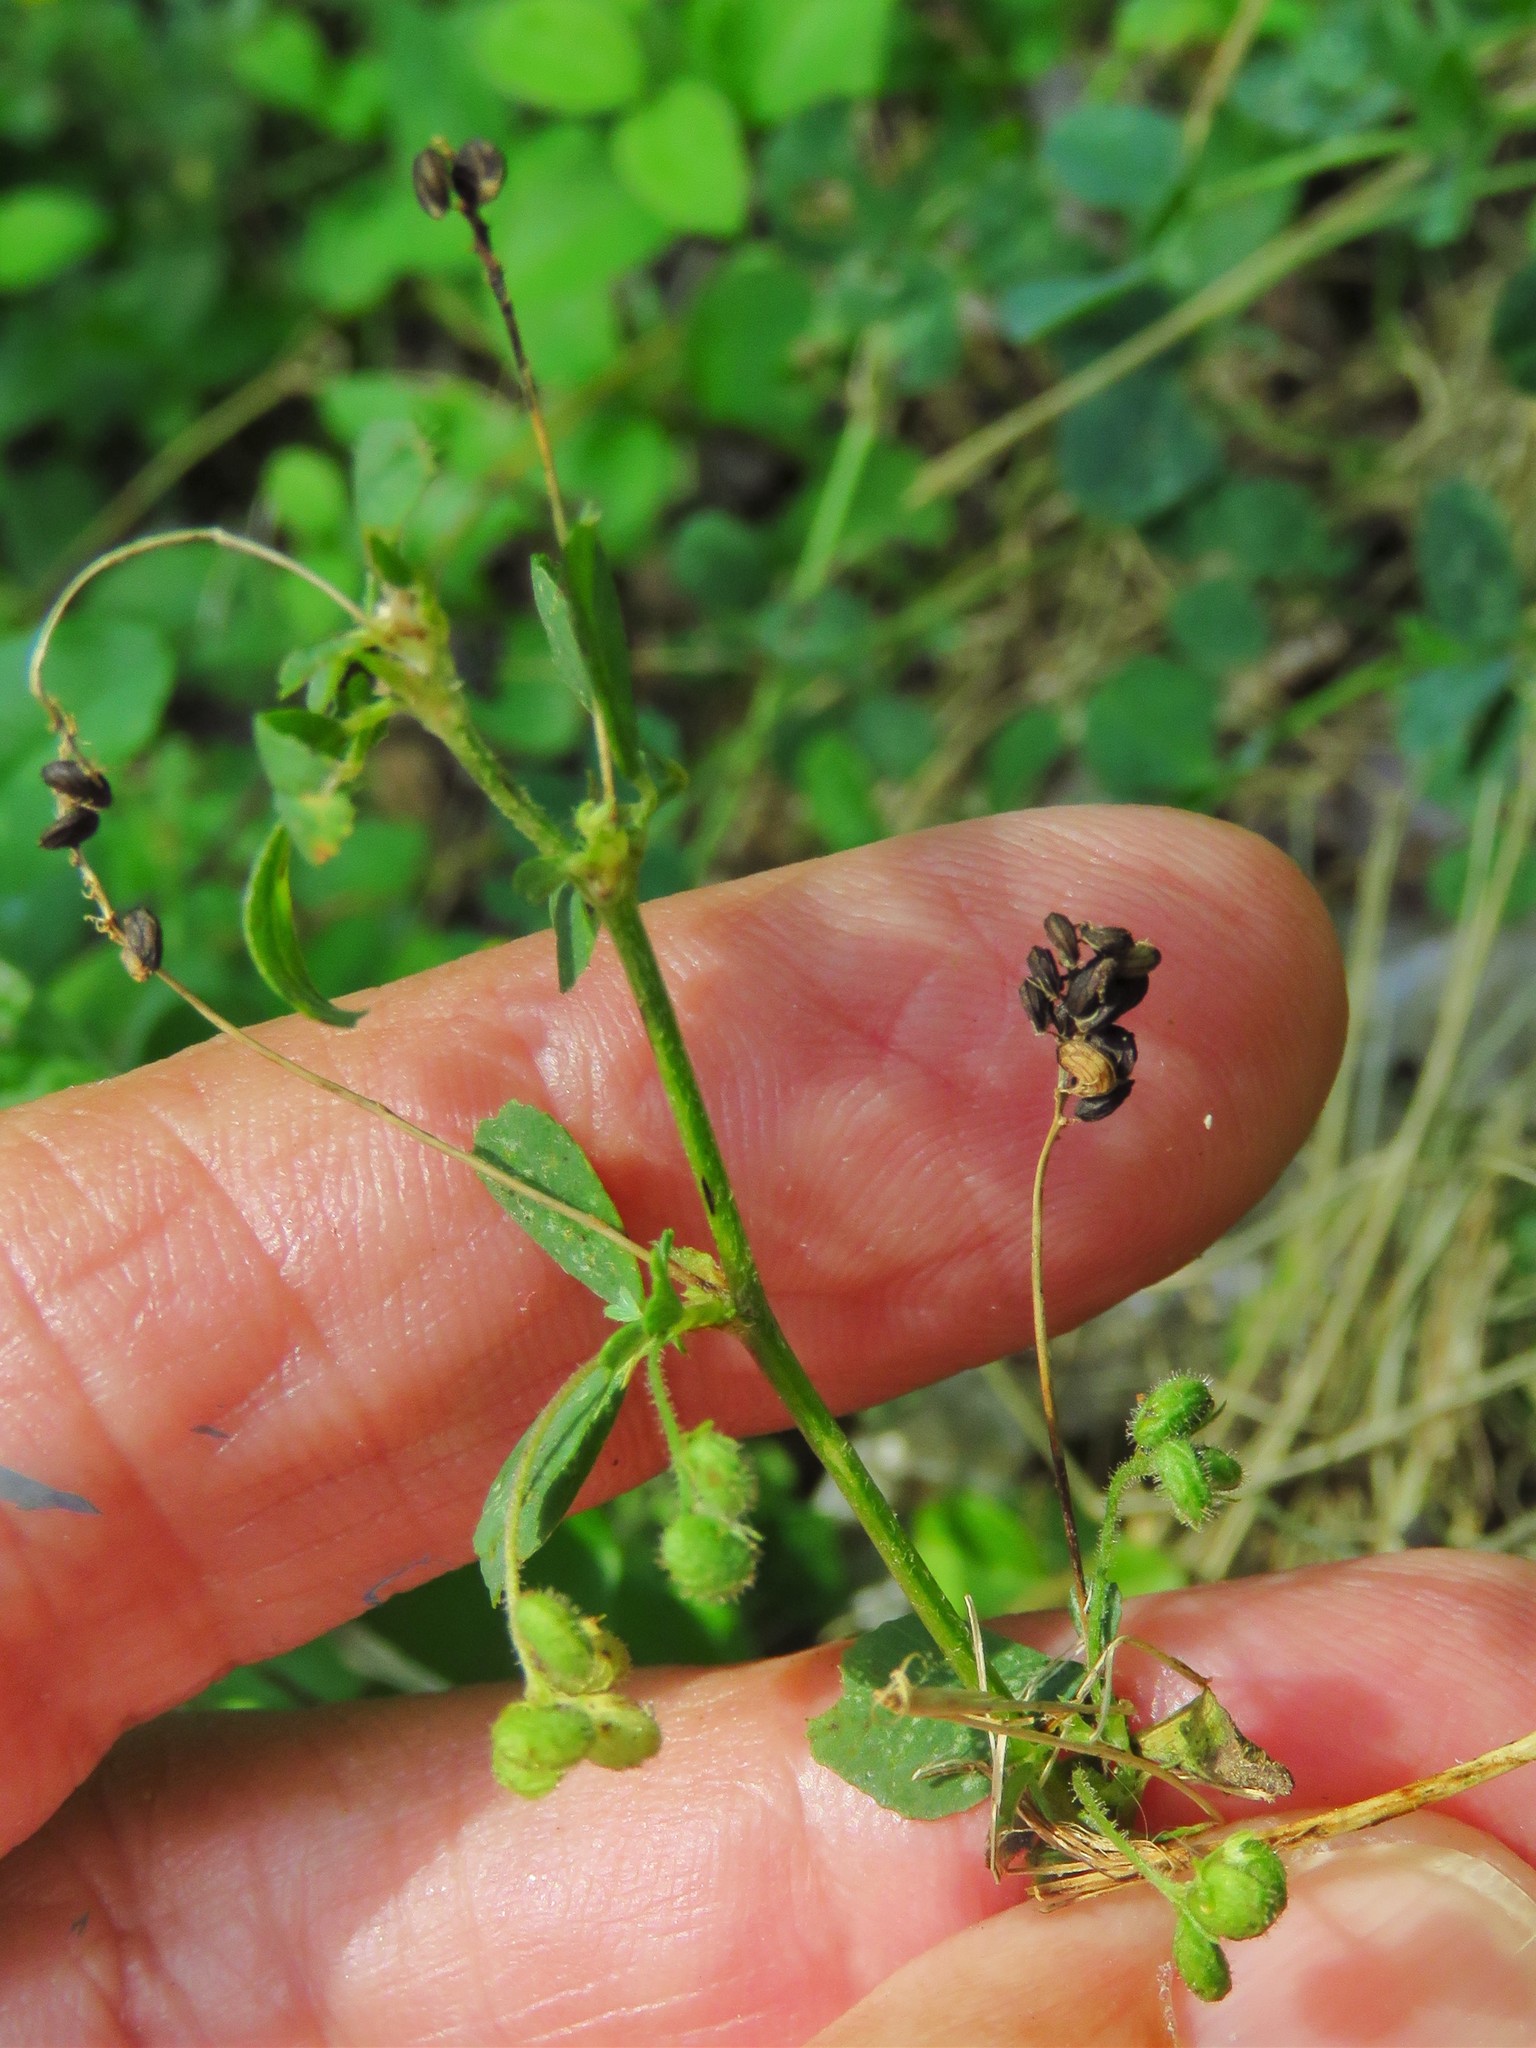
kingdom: Plantae
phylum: Tracheophyta
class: Magnoliopsida
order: Fabales
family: Fabaceae
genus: Medicago
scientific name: Medicago lupulina
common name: Black medick
